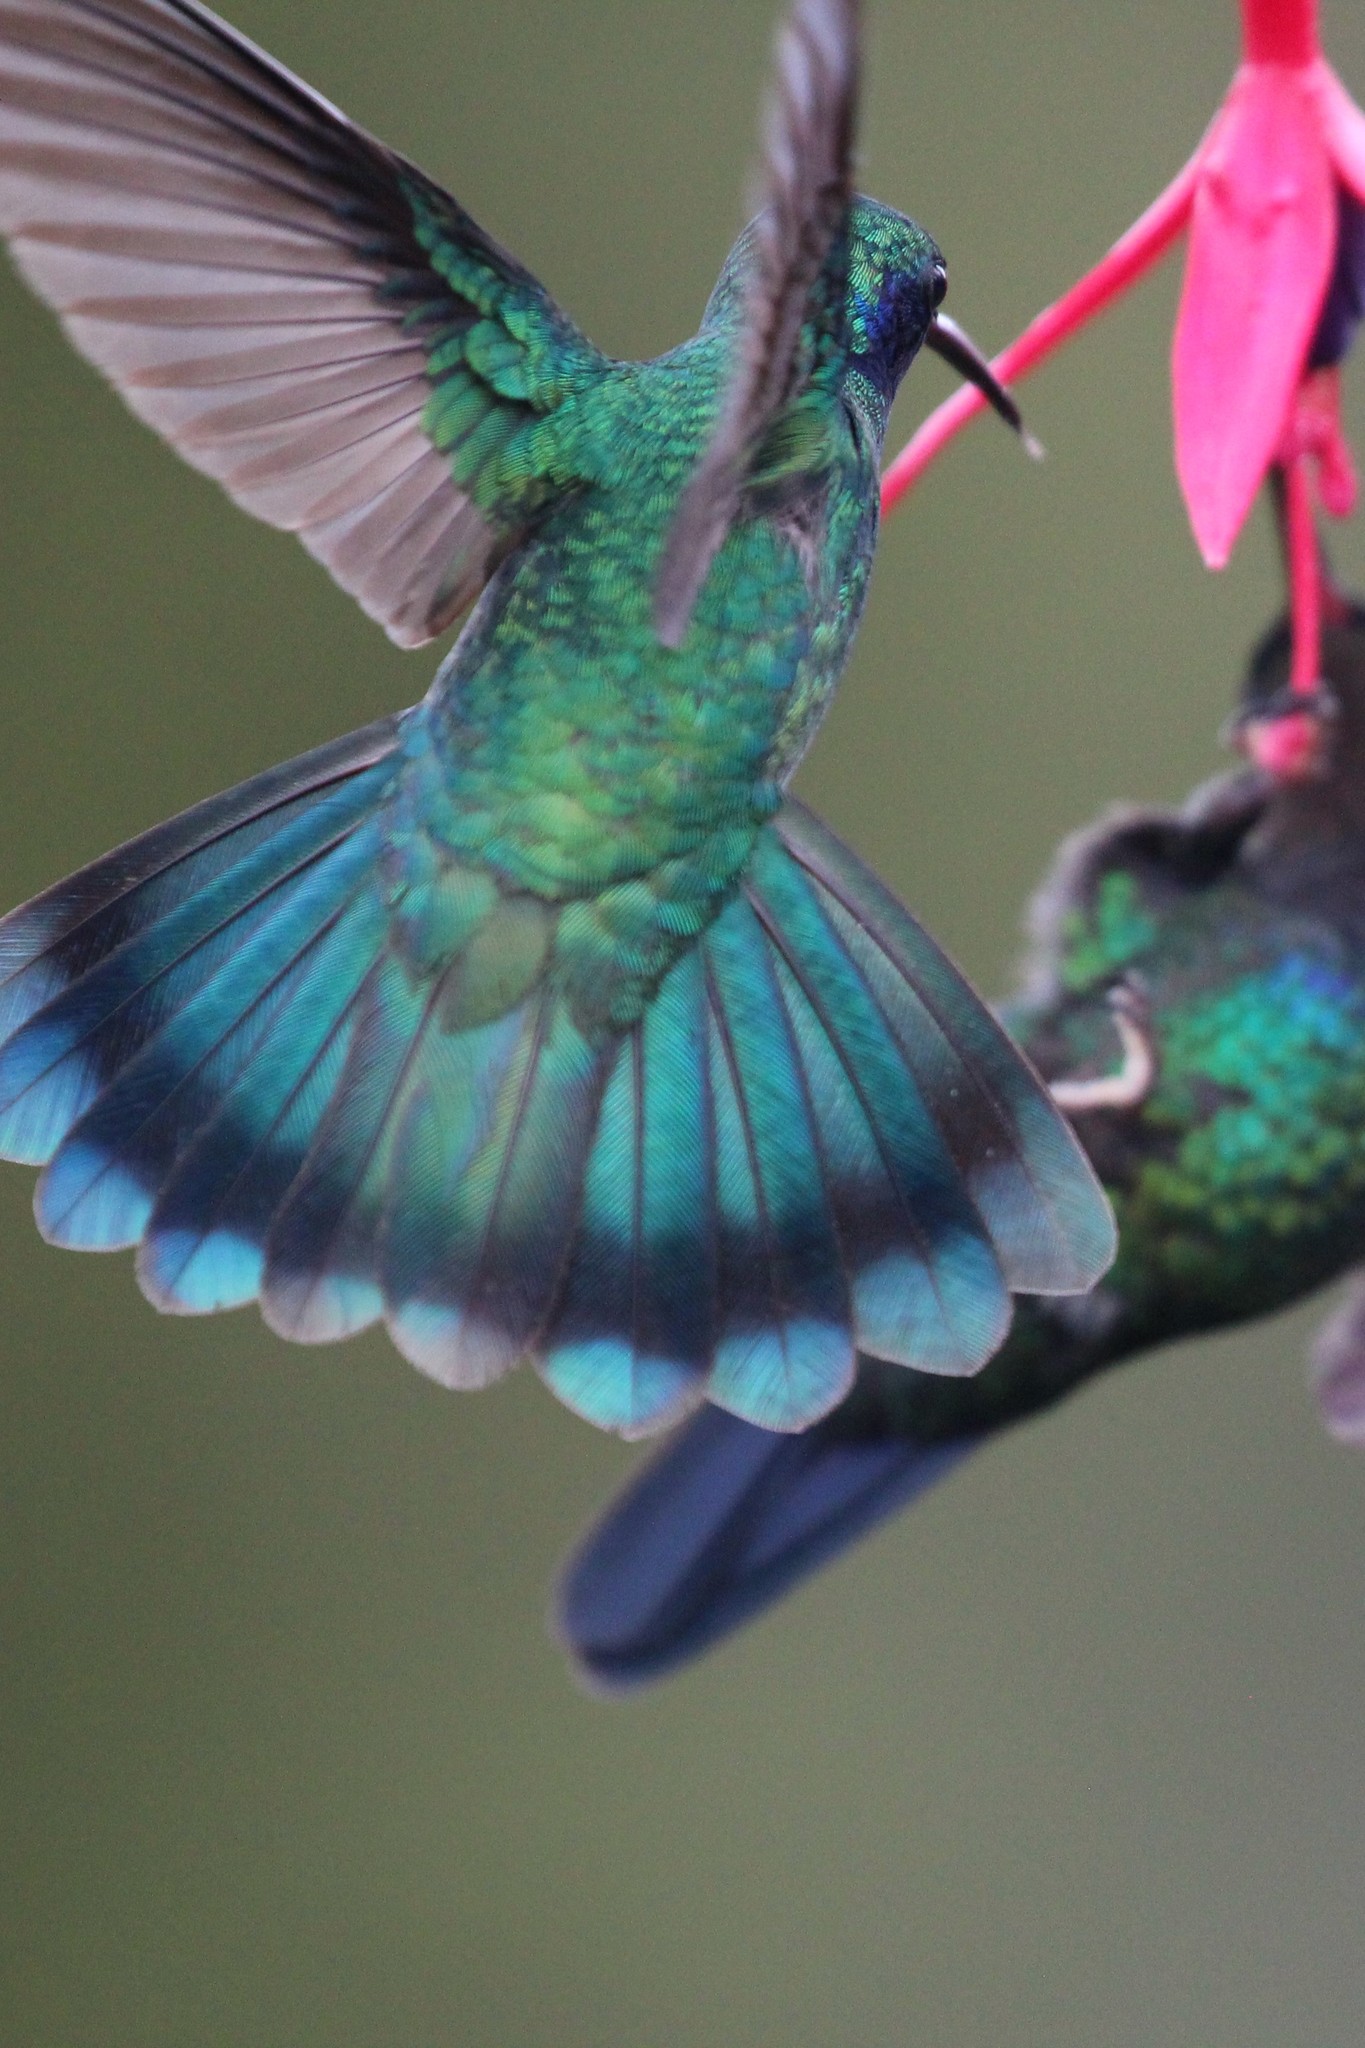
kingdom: Animalia
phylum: Chordata
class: Aves
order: Apodiformes
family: Trochilidae
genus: Colibri
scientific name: Colibri cyanotus
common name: Lesser violetear
